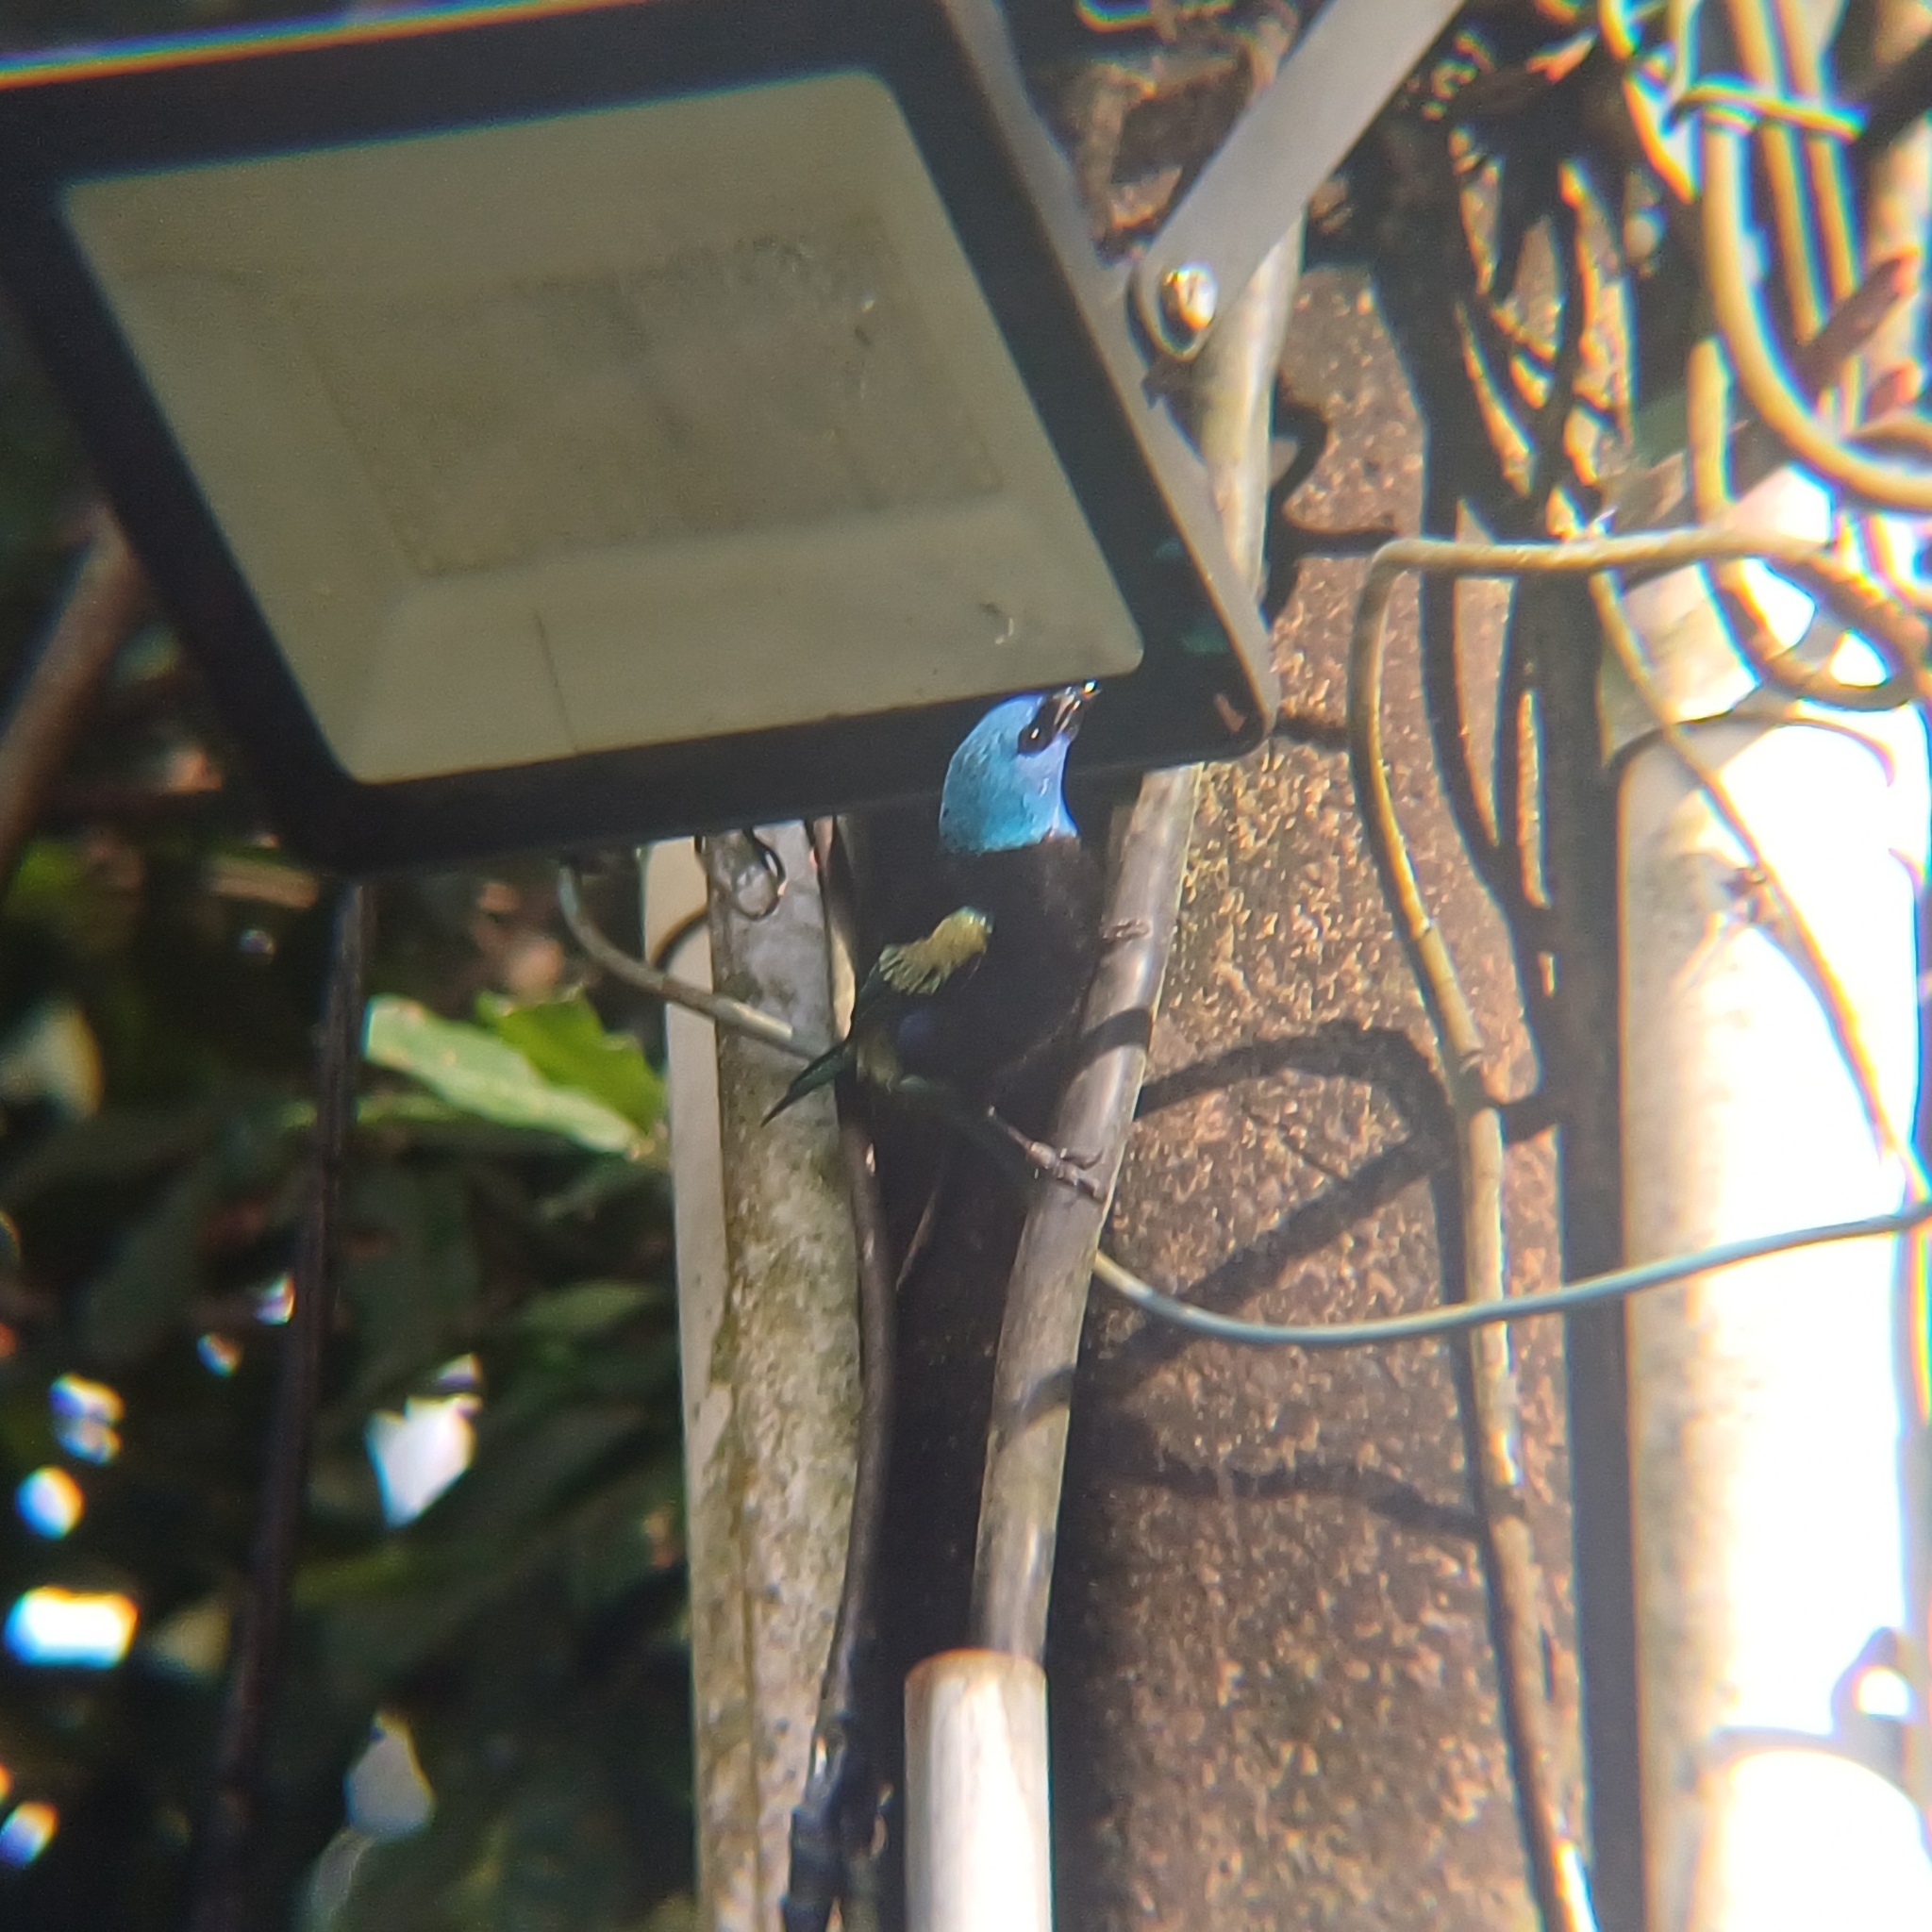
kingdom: Animalia
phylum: Chordata
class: Aves
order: Passeriformes
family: Thraupidae
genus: Stilpnia
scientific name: Stilpnia cyanicollis
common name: Blue-necked tanager
